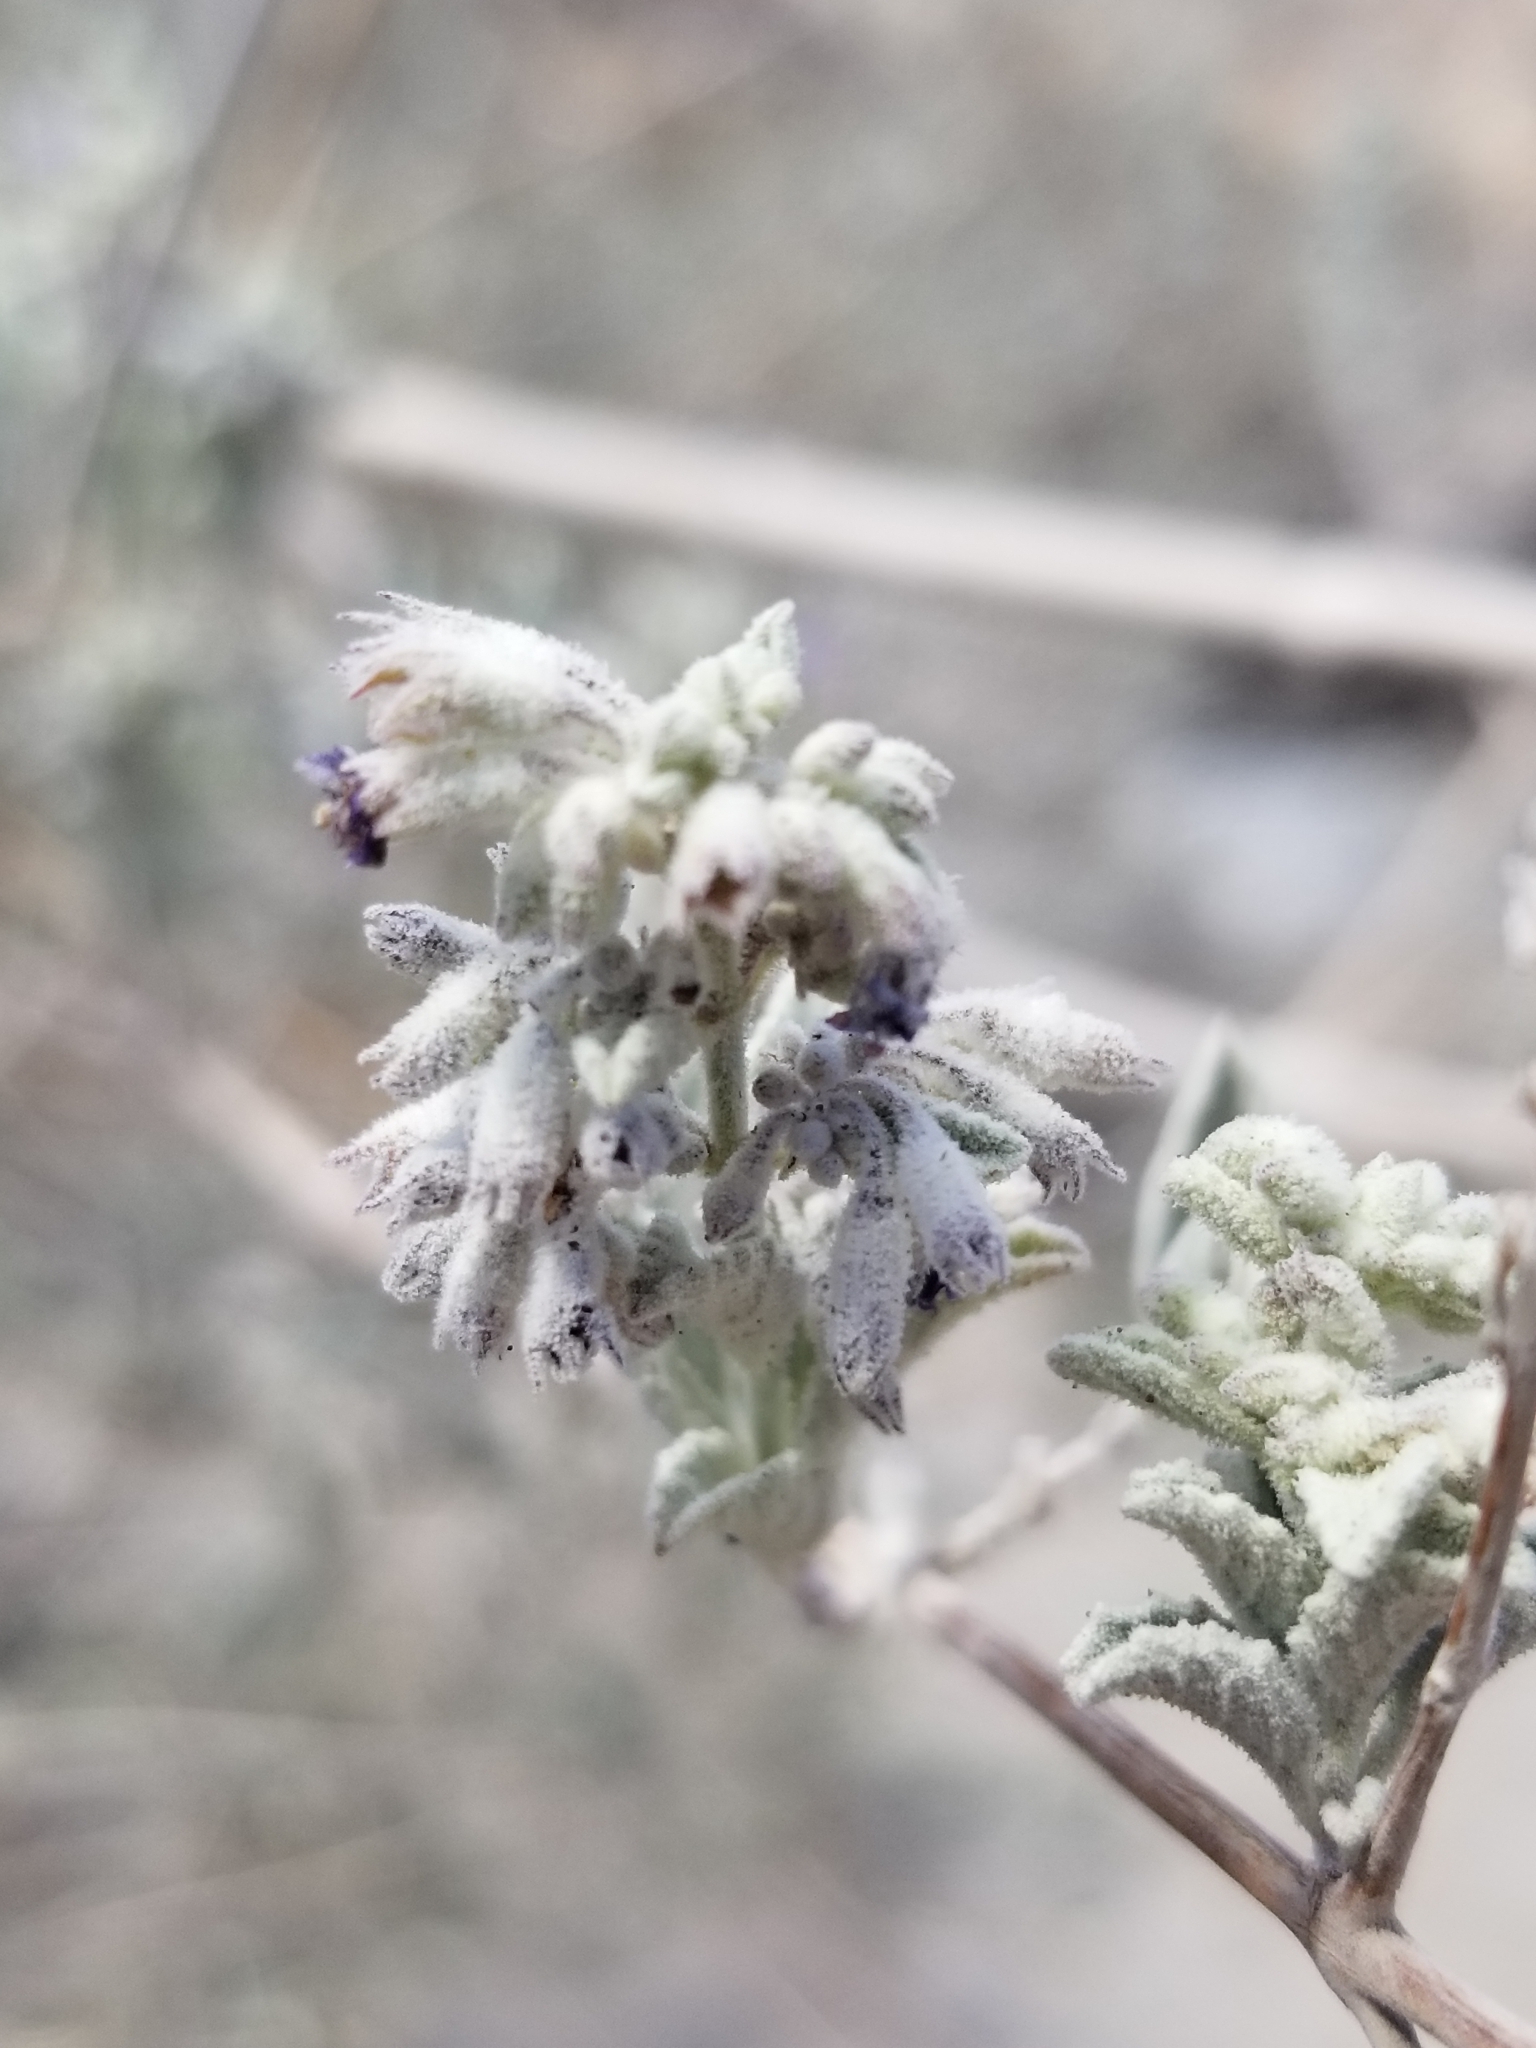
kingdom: Plantae
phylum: Tracheophyta
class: Magnoliopsida
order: Lamiales
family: Lamiaceae
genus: Condea
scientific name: Condea emoryi
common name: Chia
